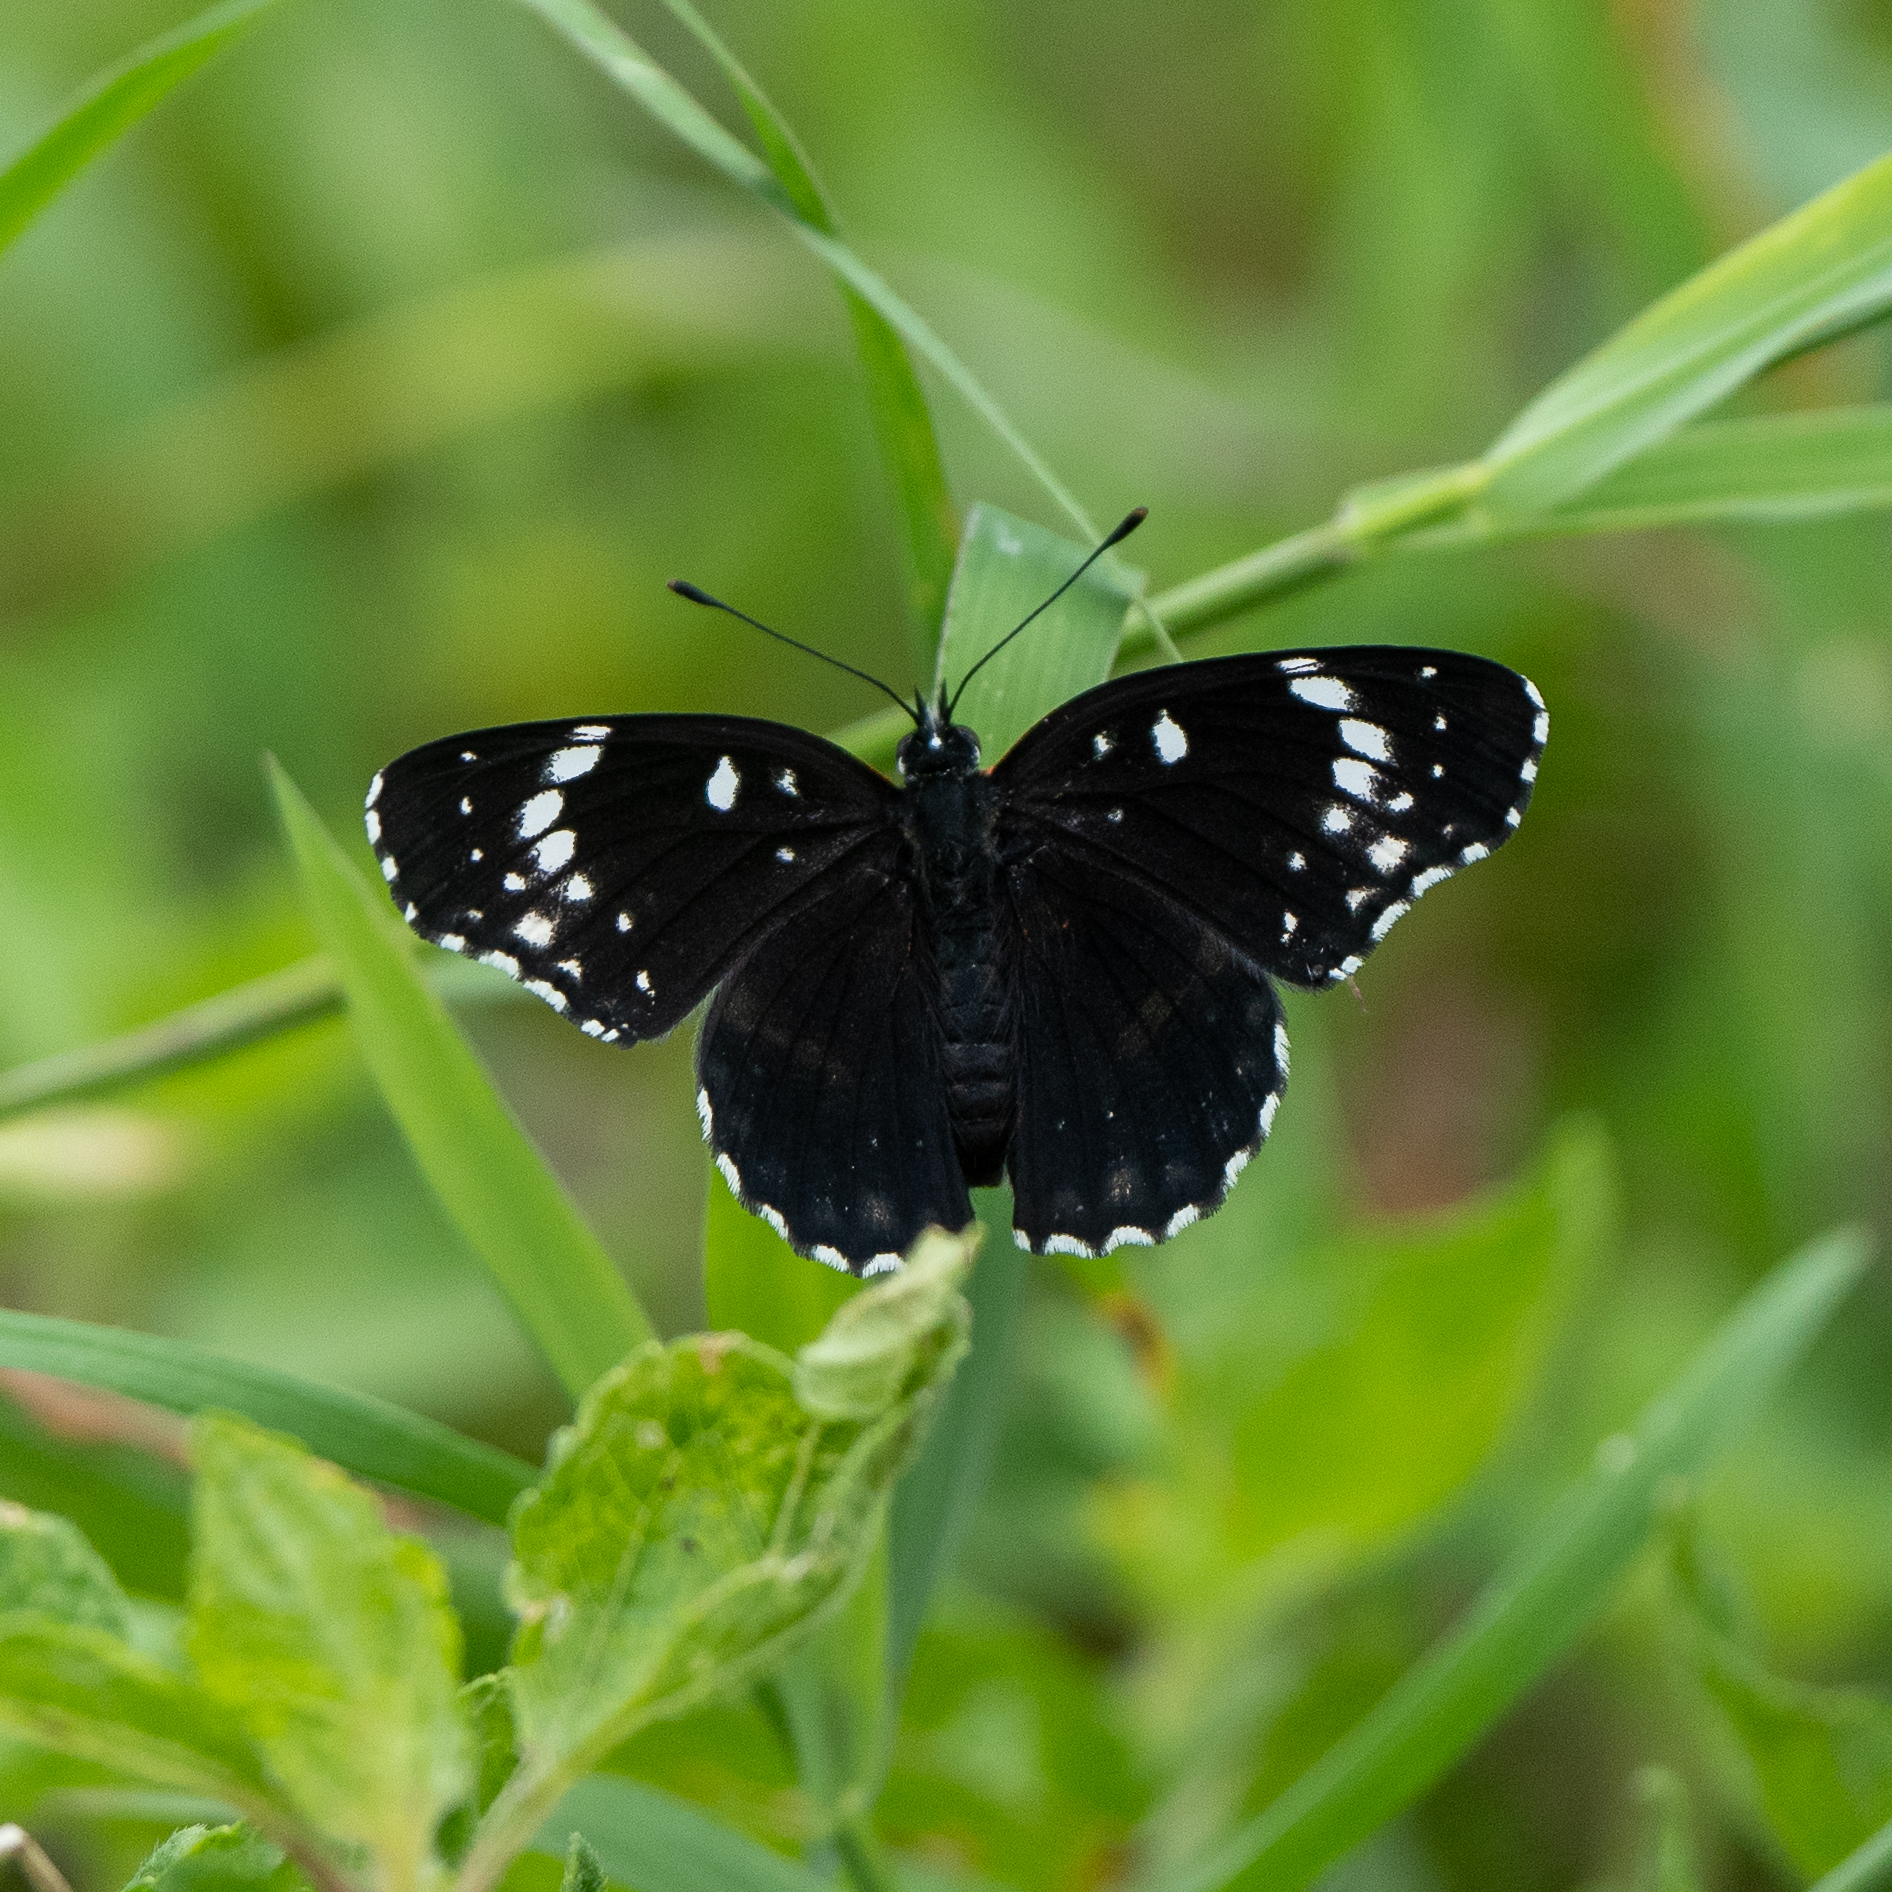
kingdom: Animalia
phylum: Arthropoda
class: Insecta
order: Lepidoptera
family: Nymphalidae
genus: Chlosyne
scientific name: Chlosyne lacinia
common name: Bordered patch
